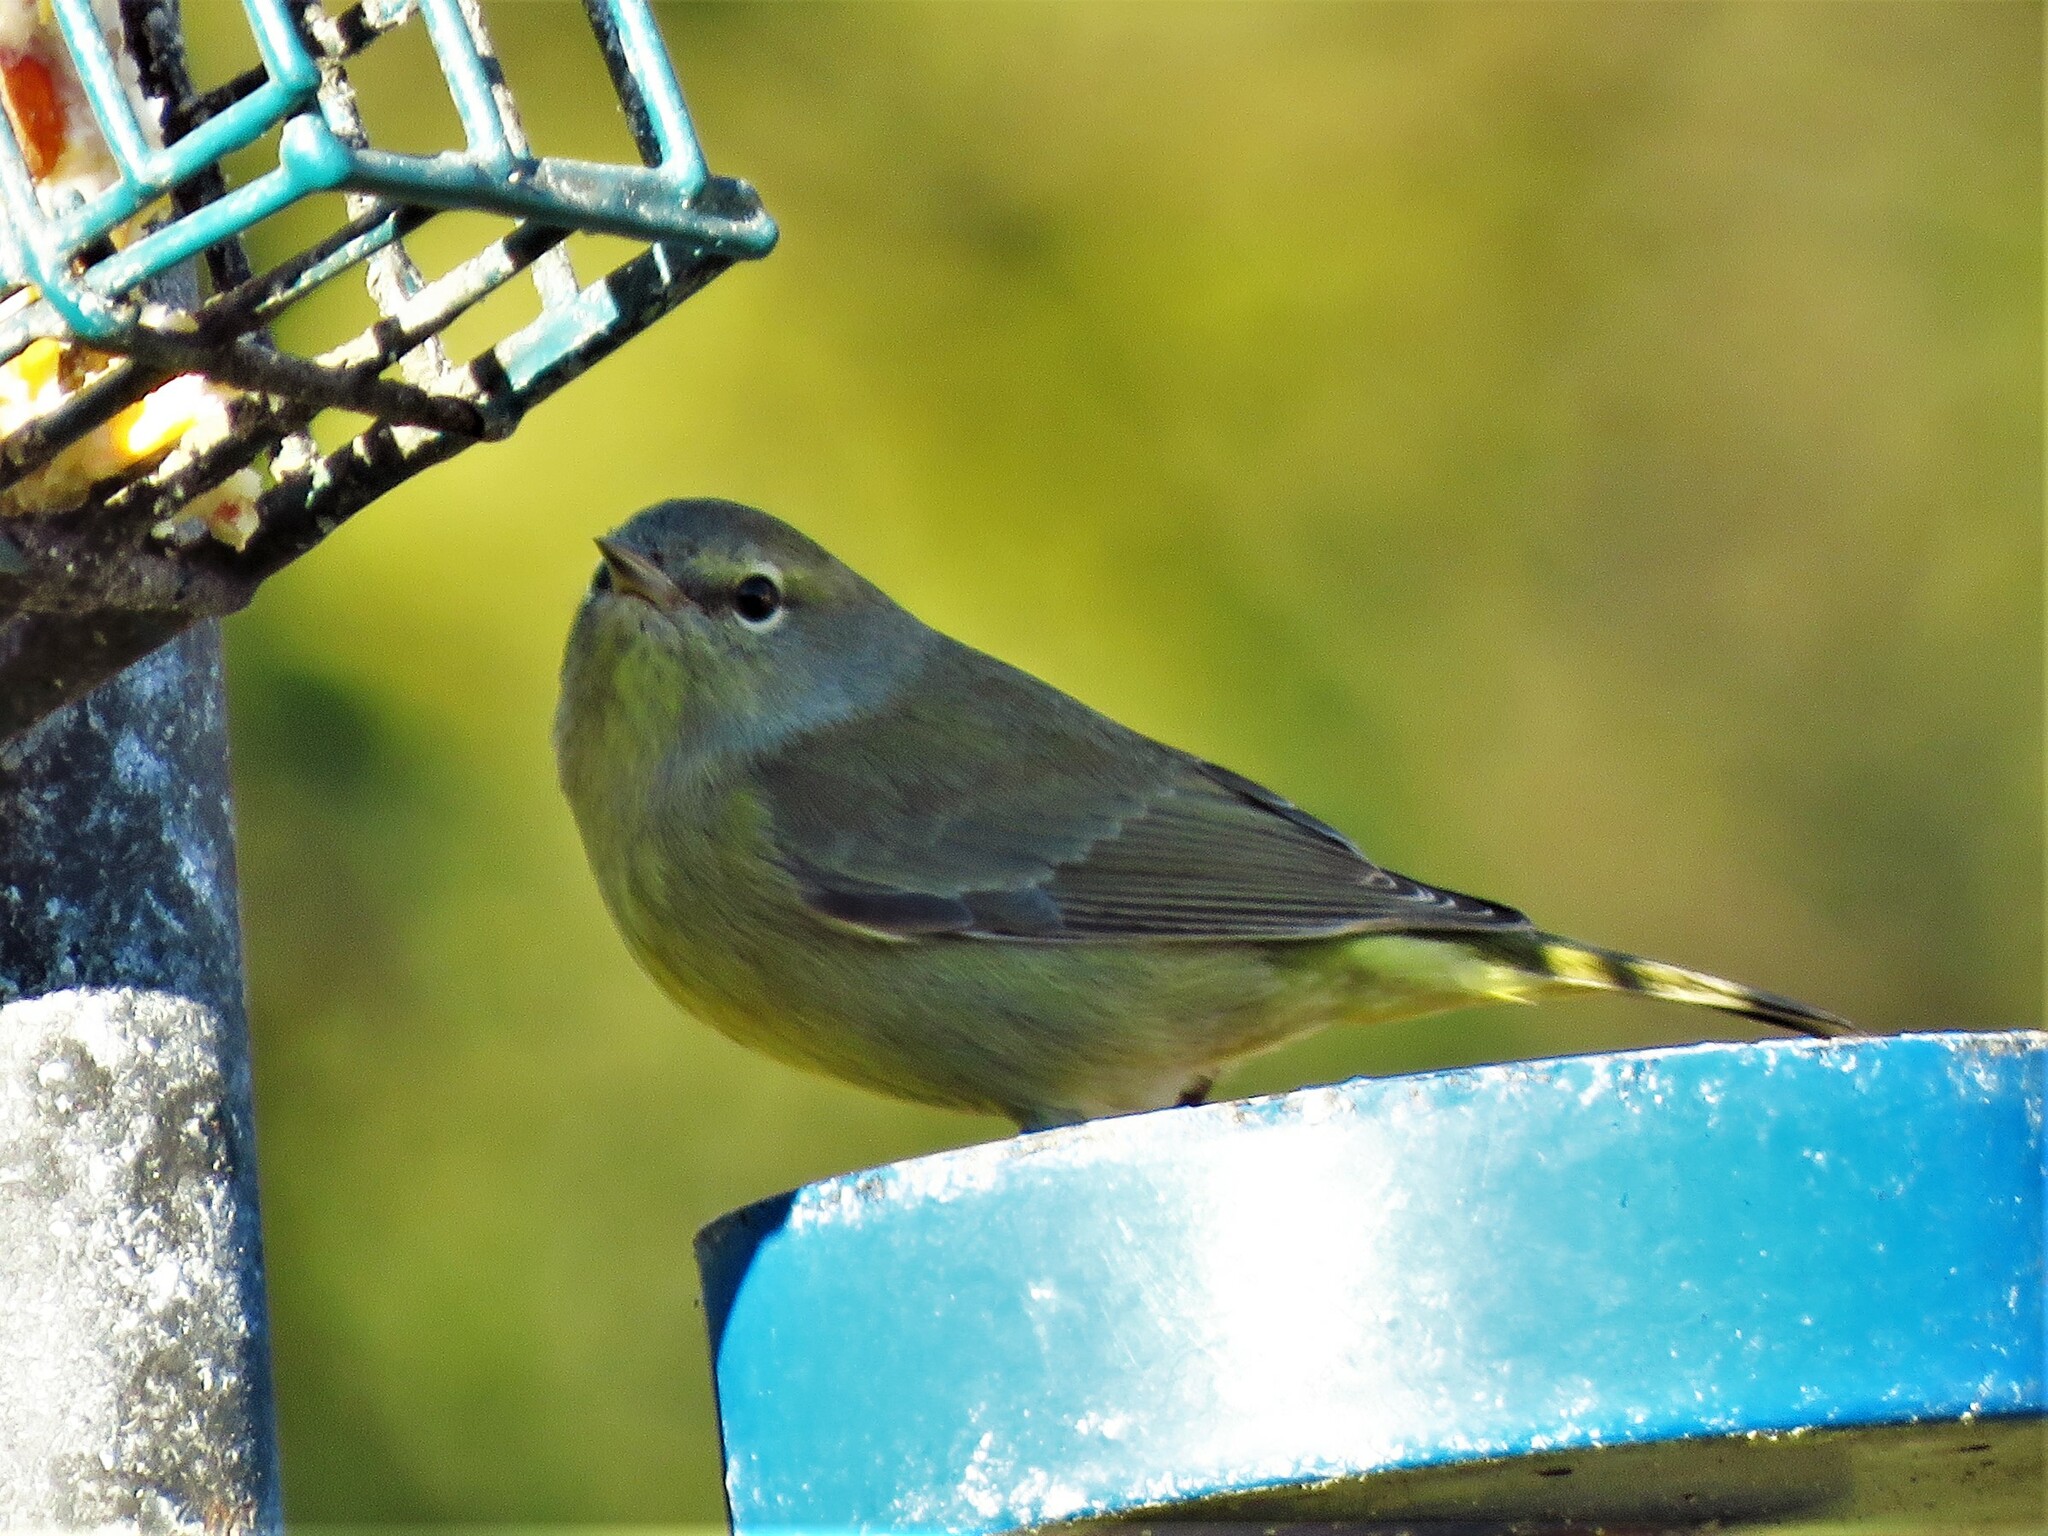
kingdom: Animalia
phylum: Chordata
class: Aves
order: Passeriformes
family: Parulidae
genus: Leiothlypis
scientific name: Leiothlypis celata
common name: Orange-crowned warbler
